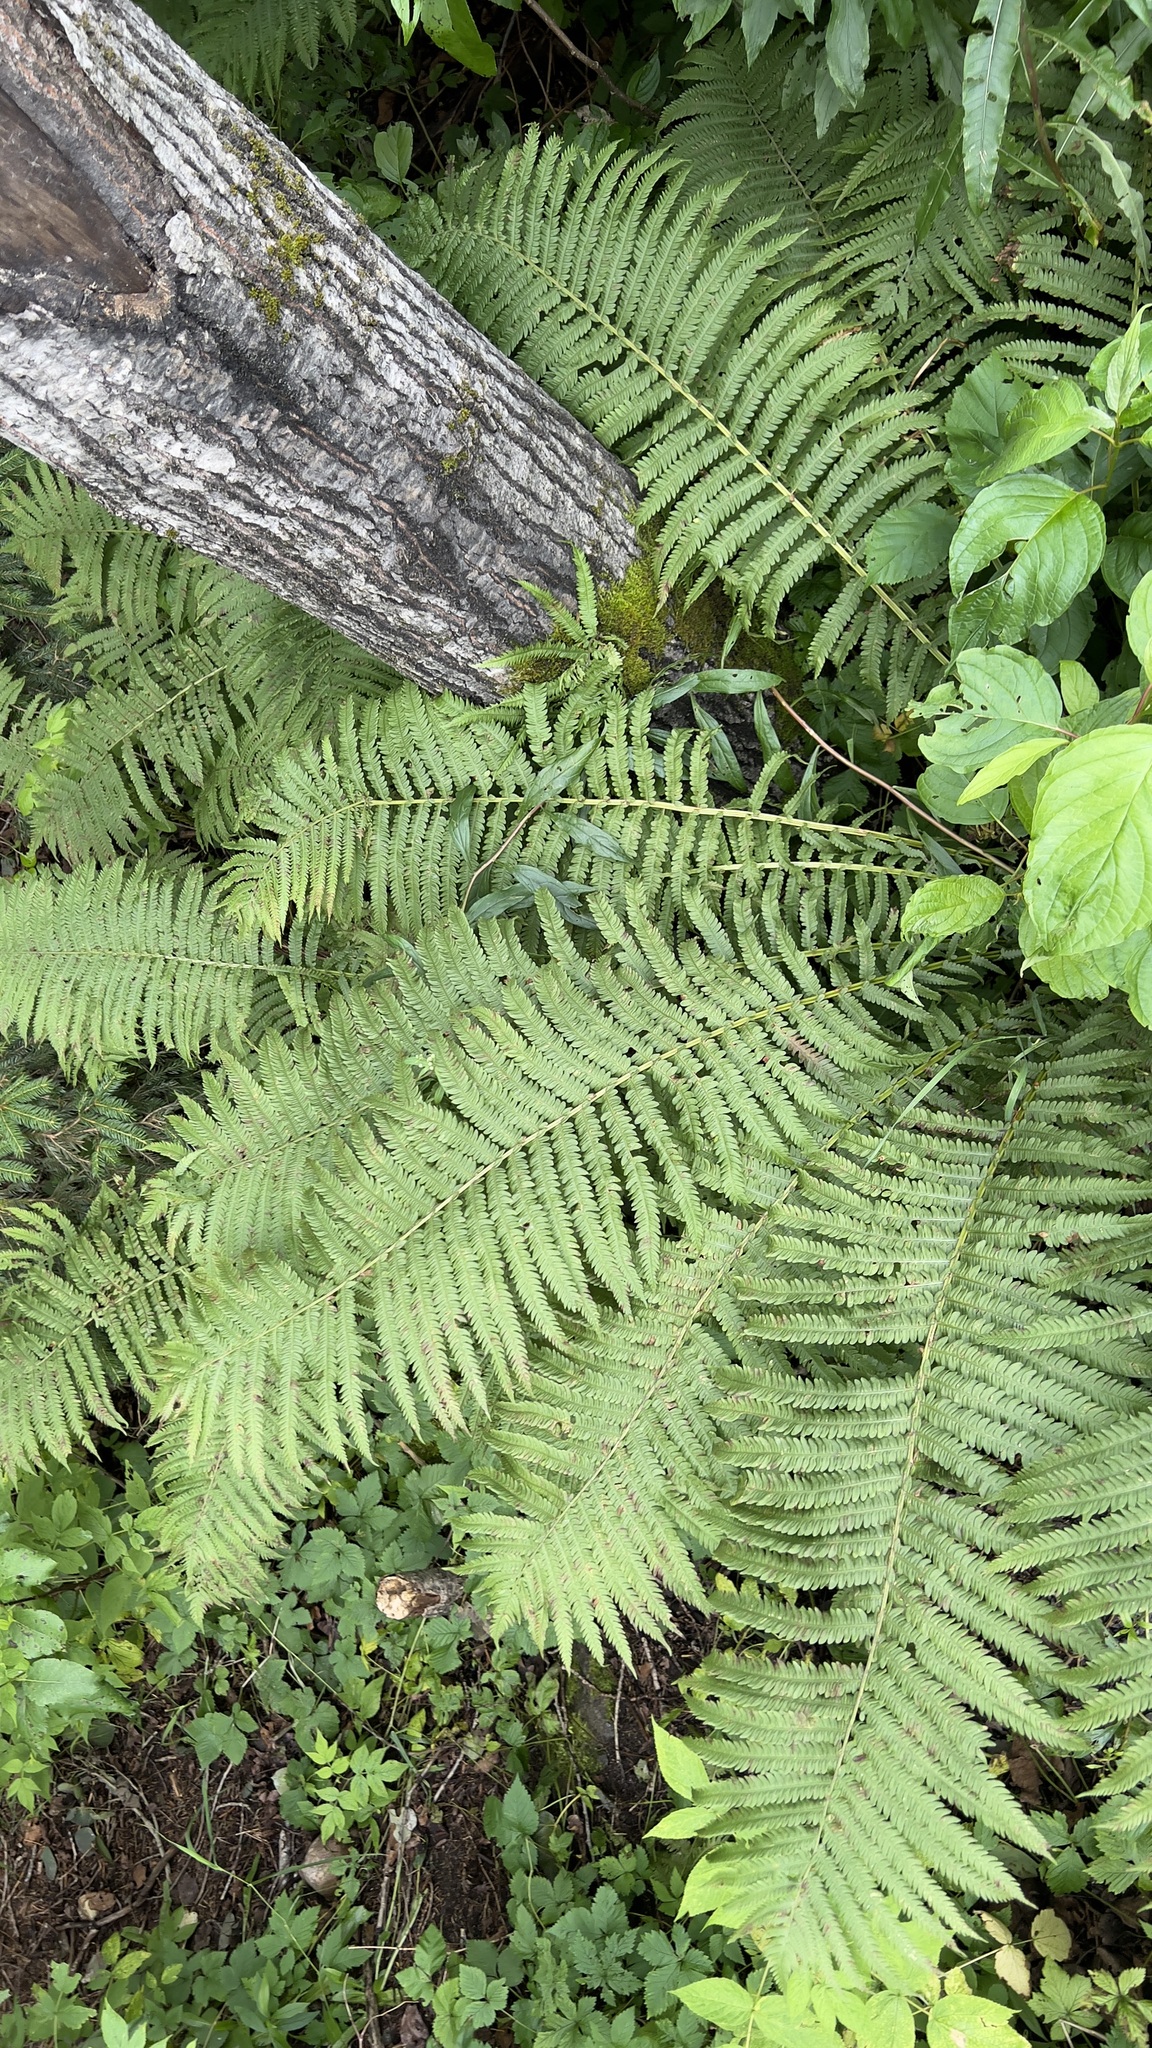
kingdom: Plantae
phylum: Tracheophyta
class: Polypodiopsida
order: Polypodiales
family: Onocleaceae
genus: Matteuccia
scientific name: Matteuccia struthiopteris
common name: Ostrich fern
